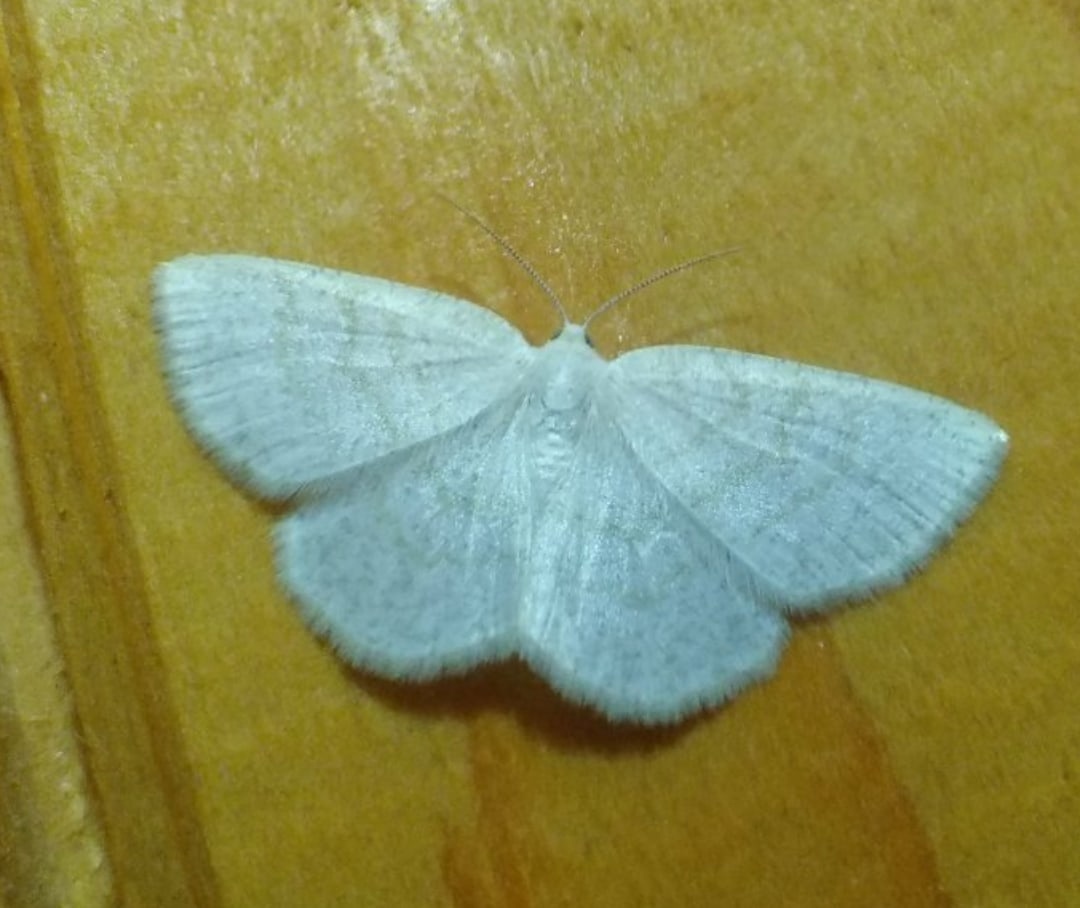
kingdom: Animalia
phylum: Arthropoda
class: Insecta
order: Lepidoptera
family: Geometridae
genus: Cabera
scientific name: Cabera exanthemata
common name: Common wave
